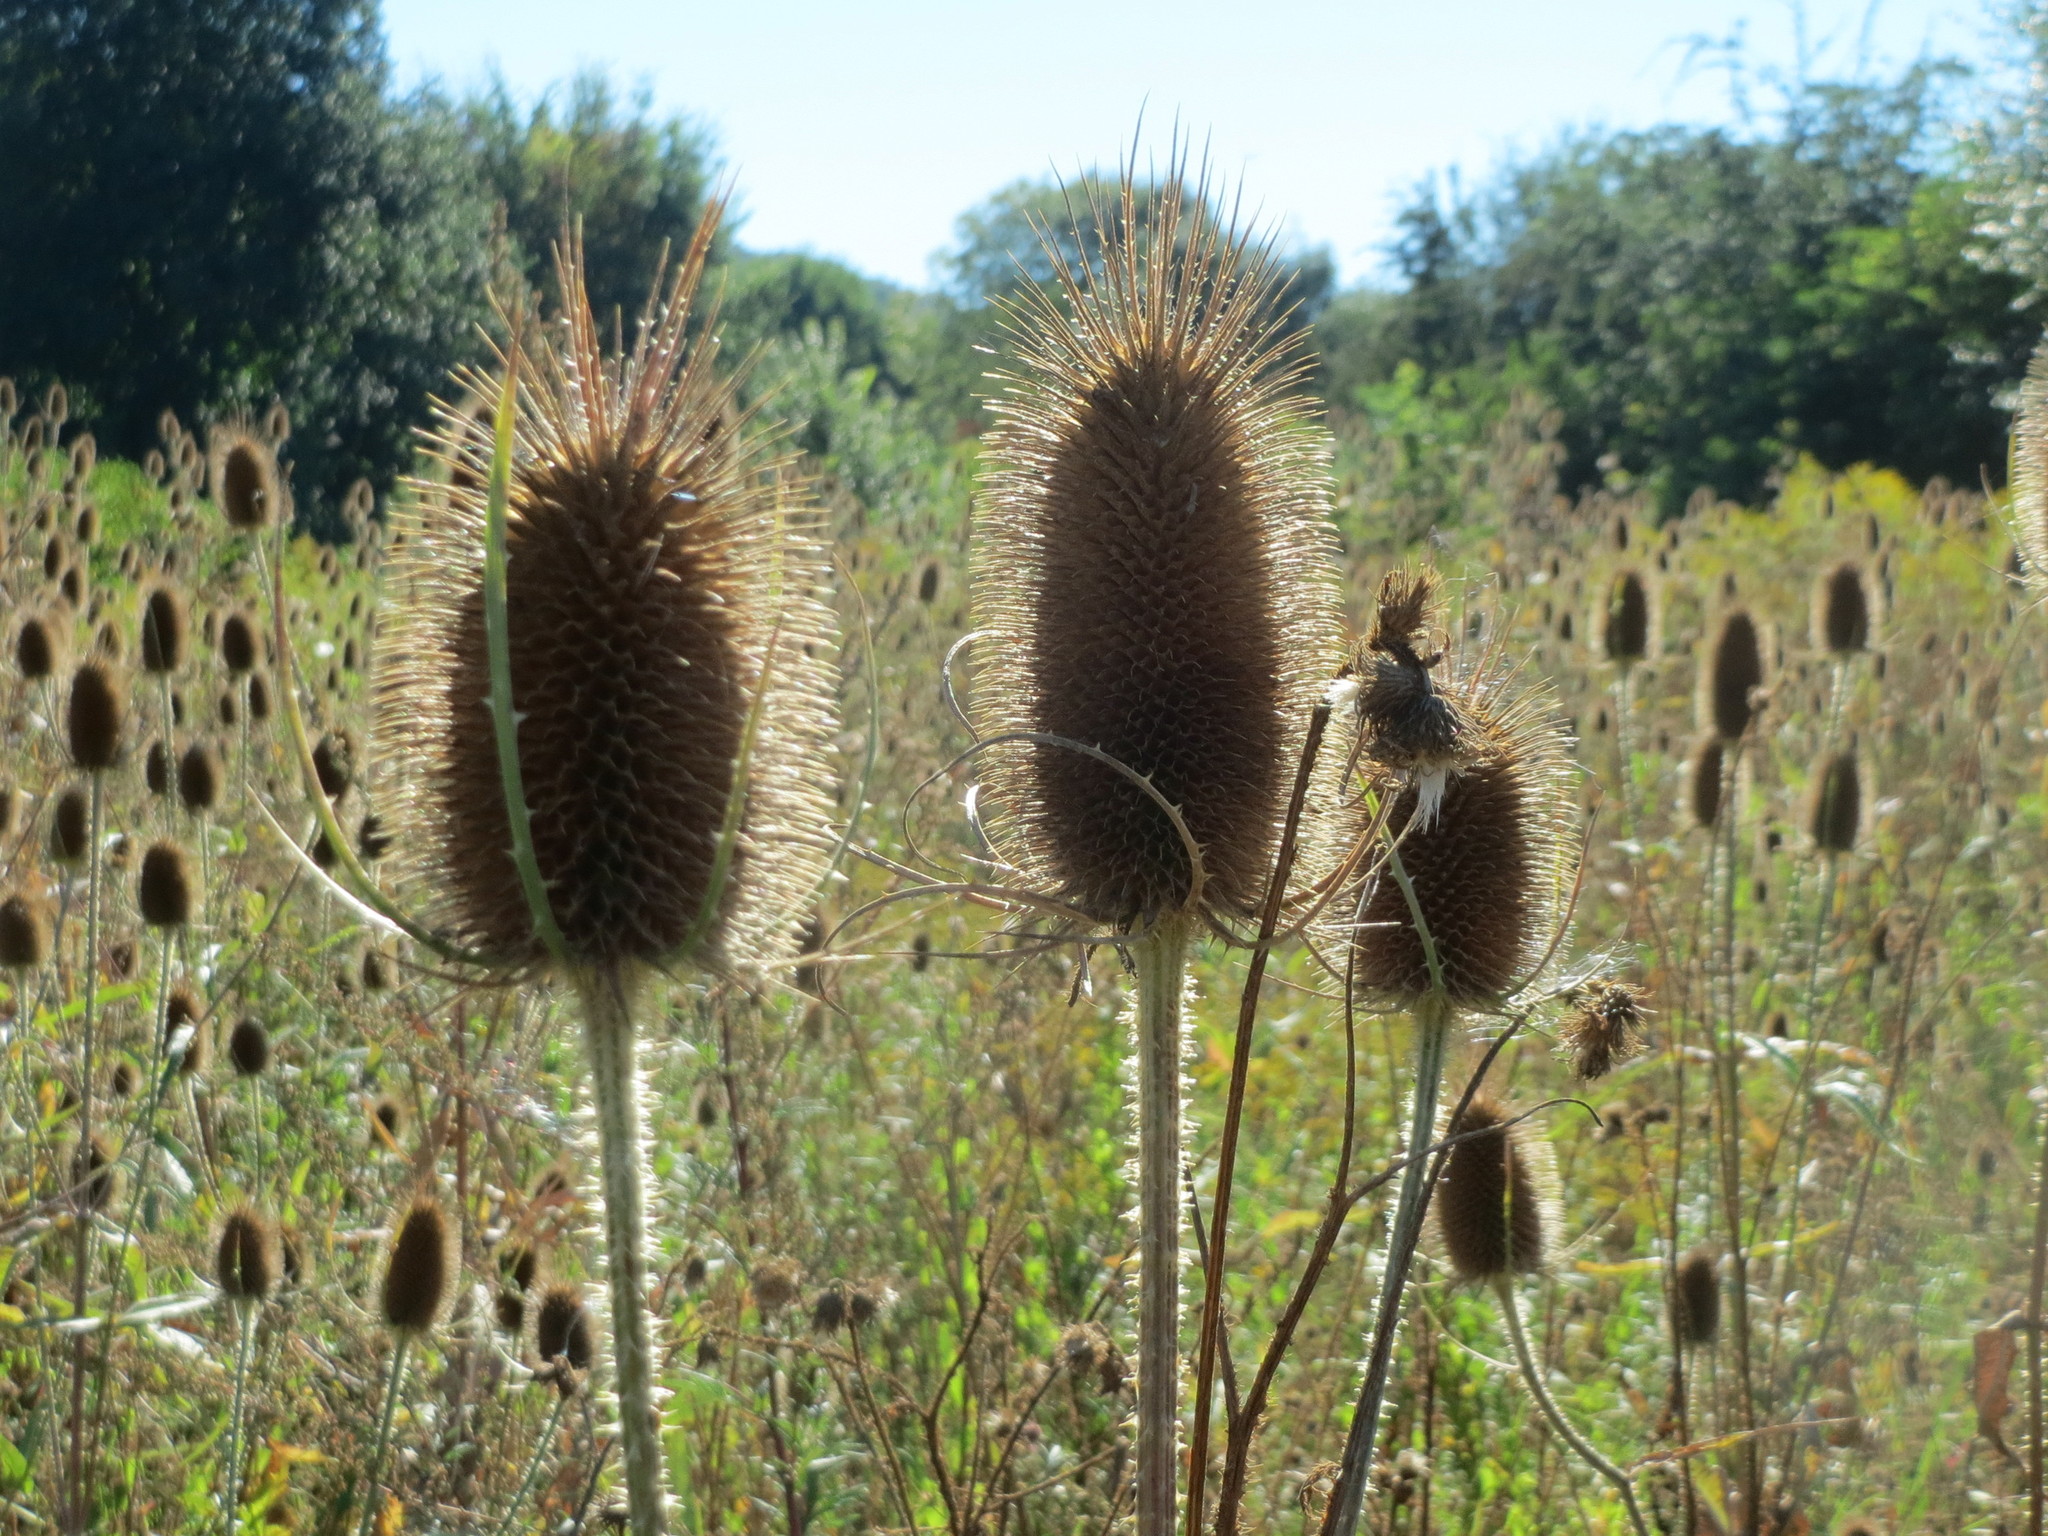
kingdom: Plantae
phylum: Tracheophyta
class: Magnoliopsida
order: Dipsacales
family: Caprifoliaceae
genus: Dipsacus
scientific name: Dipsacus fullonum
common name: Teasel
